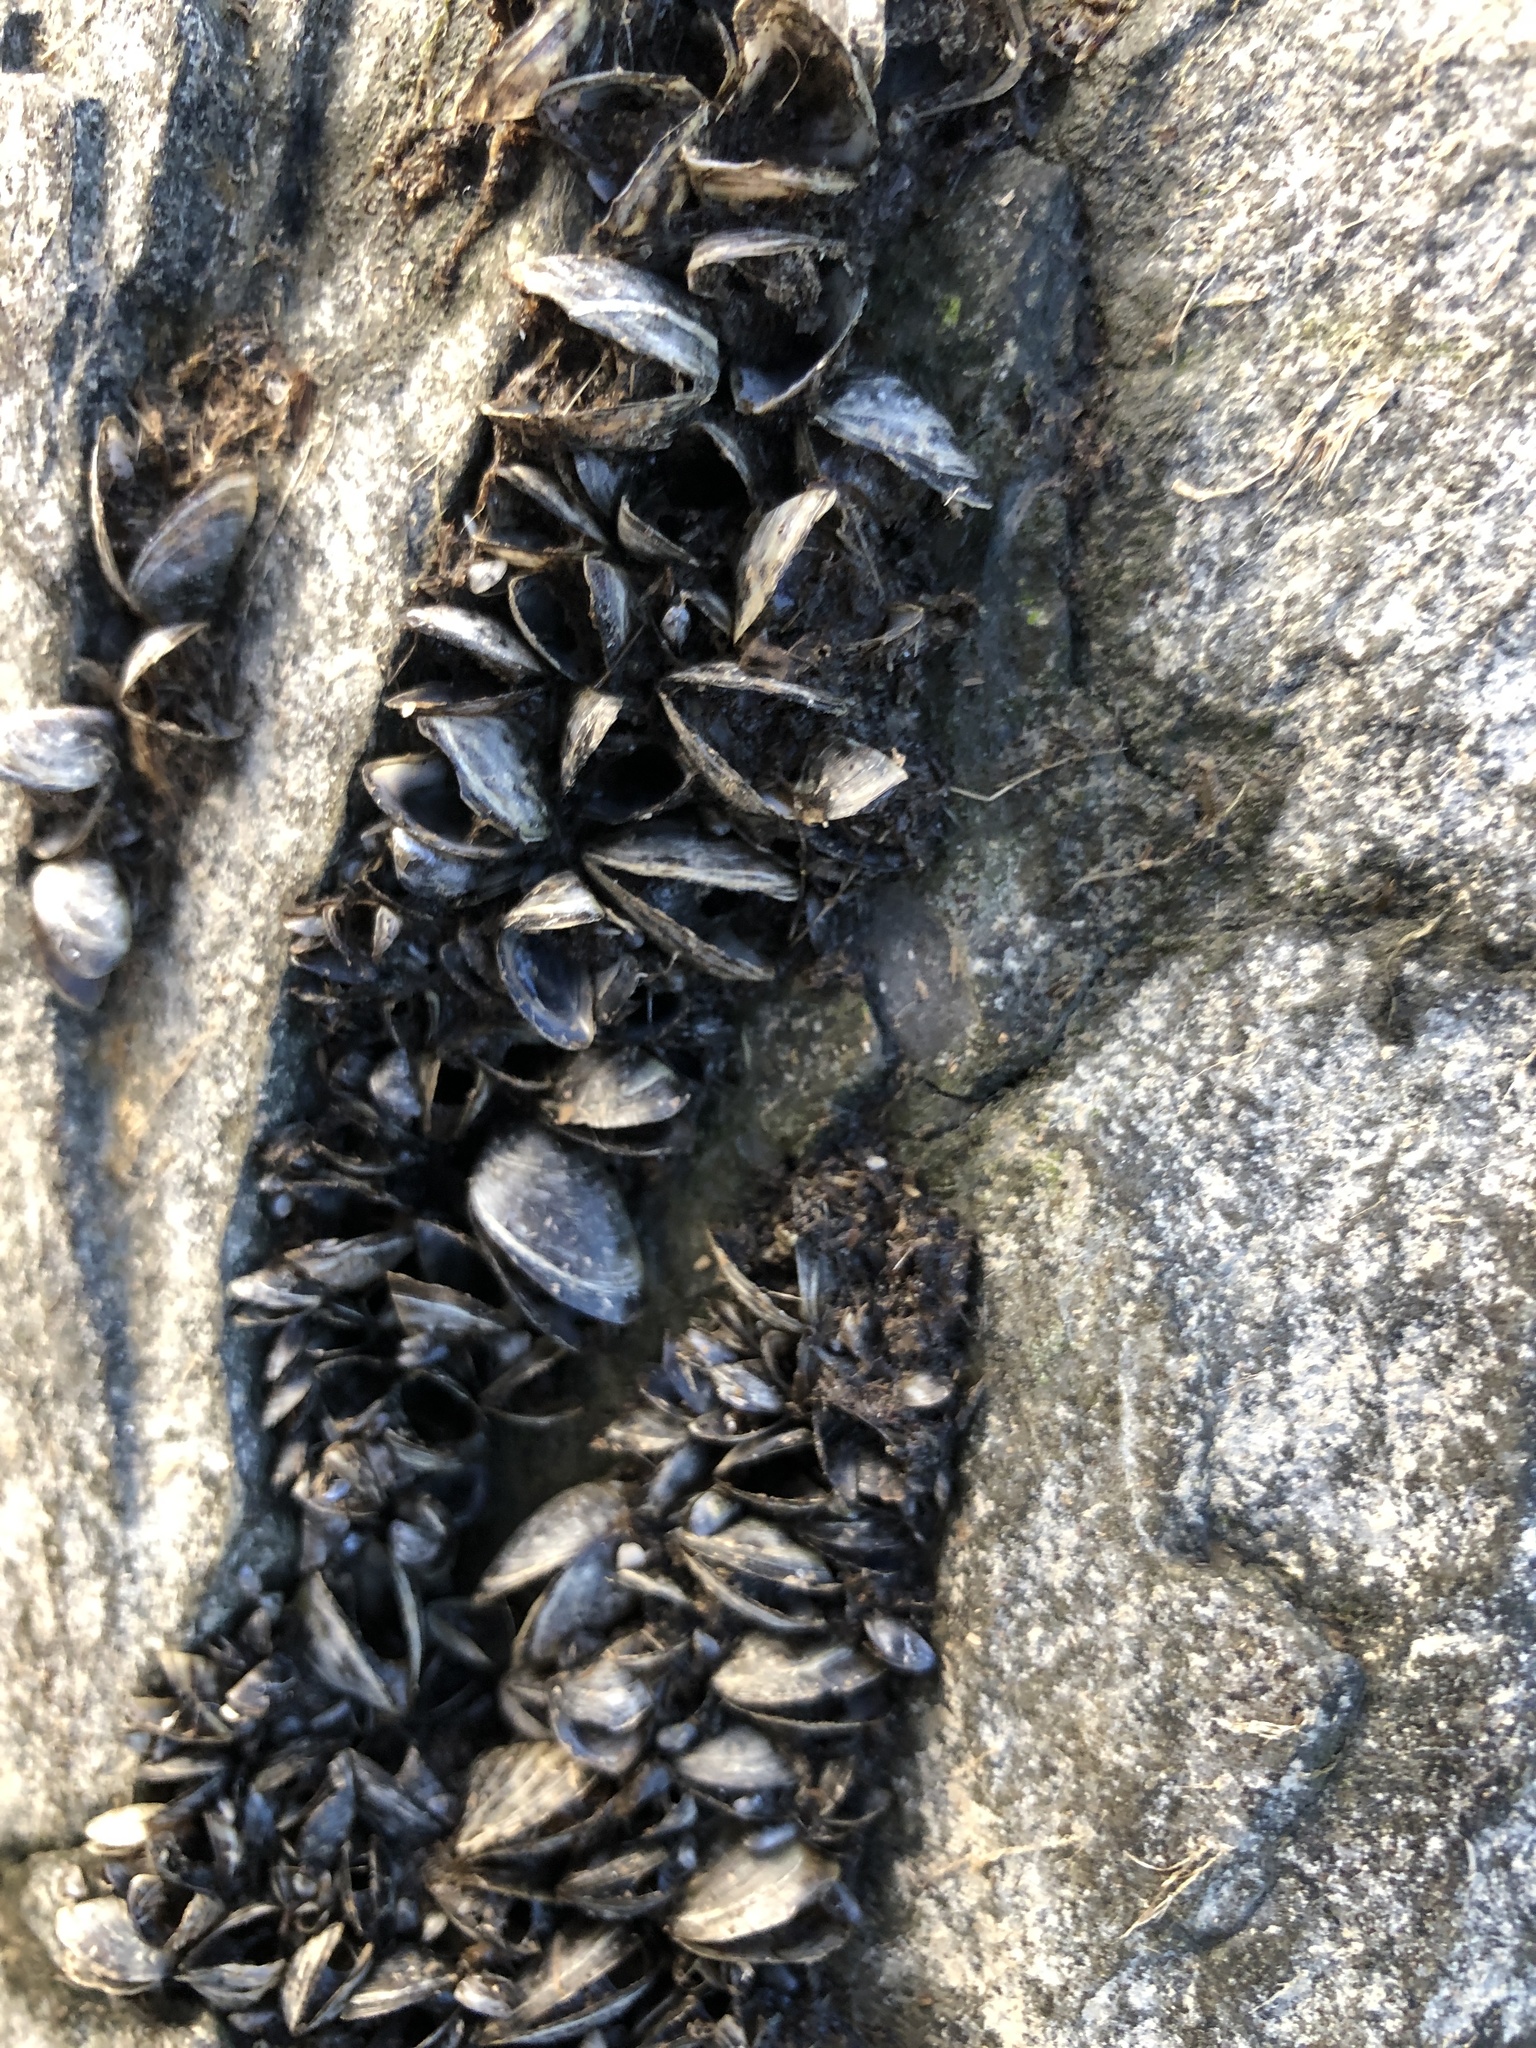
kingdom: Animalia
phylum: Mollusca
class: Bivalvia
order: Myida
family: Dreissenidae
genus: Dreissena
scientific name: Dreissena polymorpha
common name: Zebra mussel
